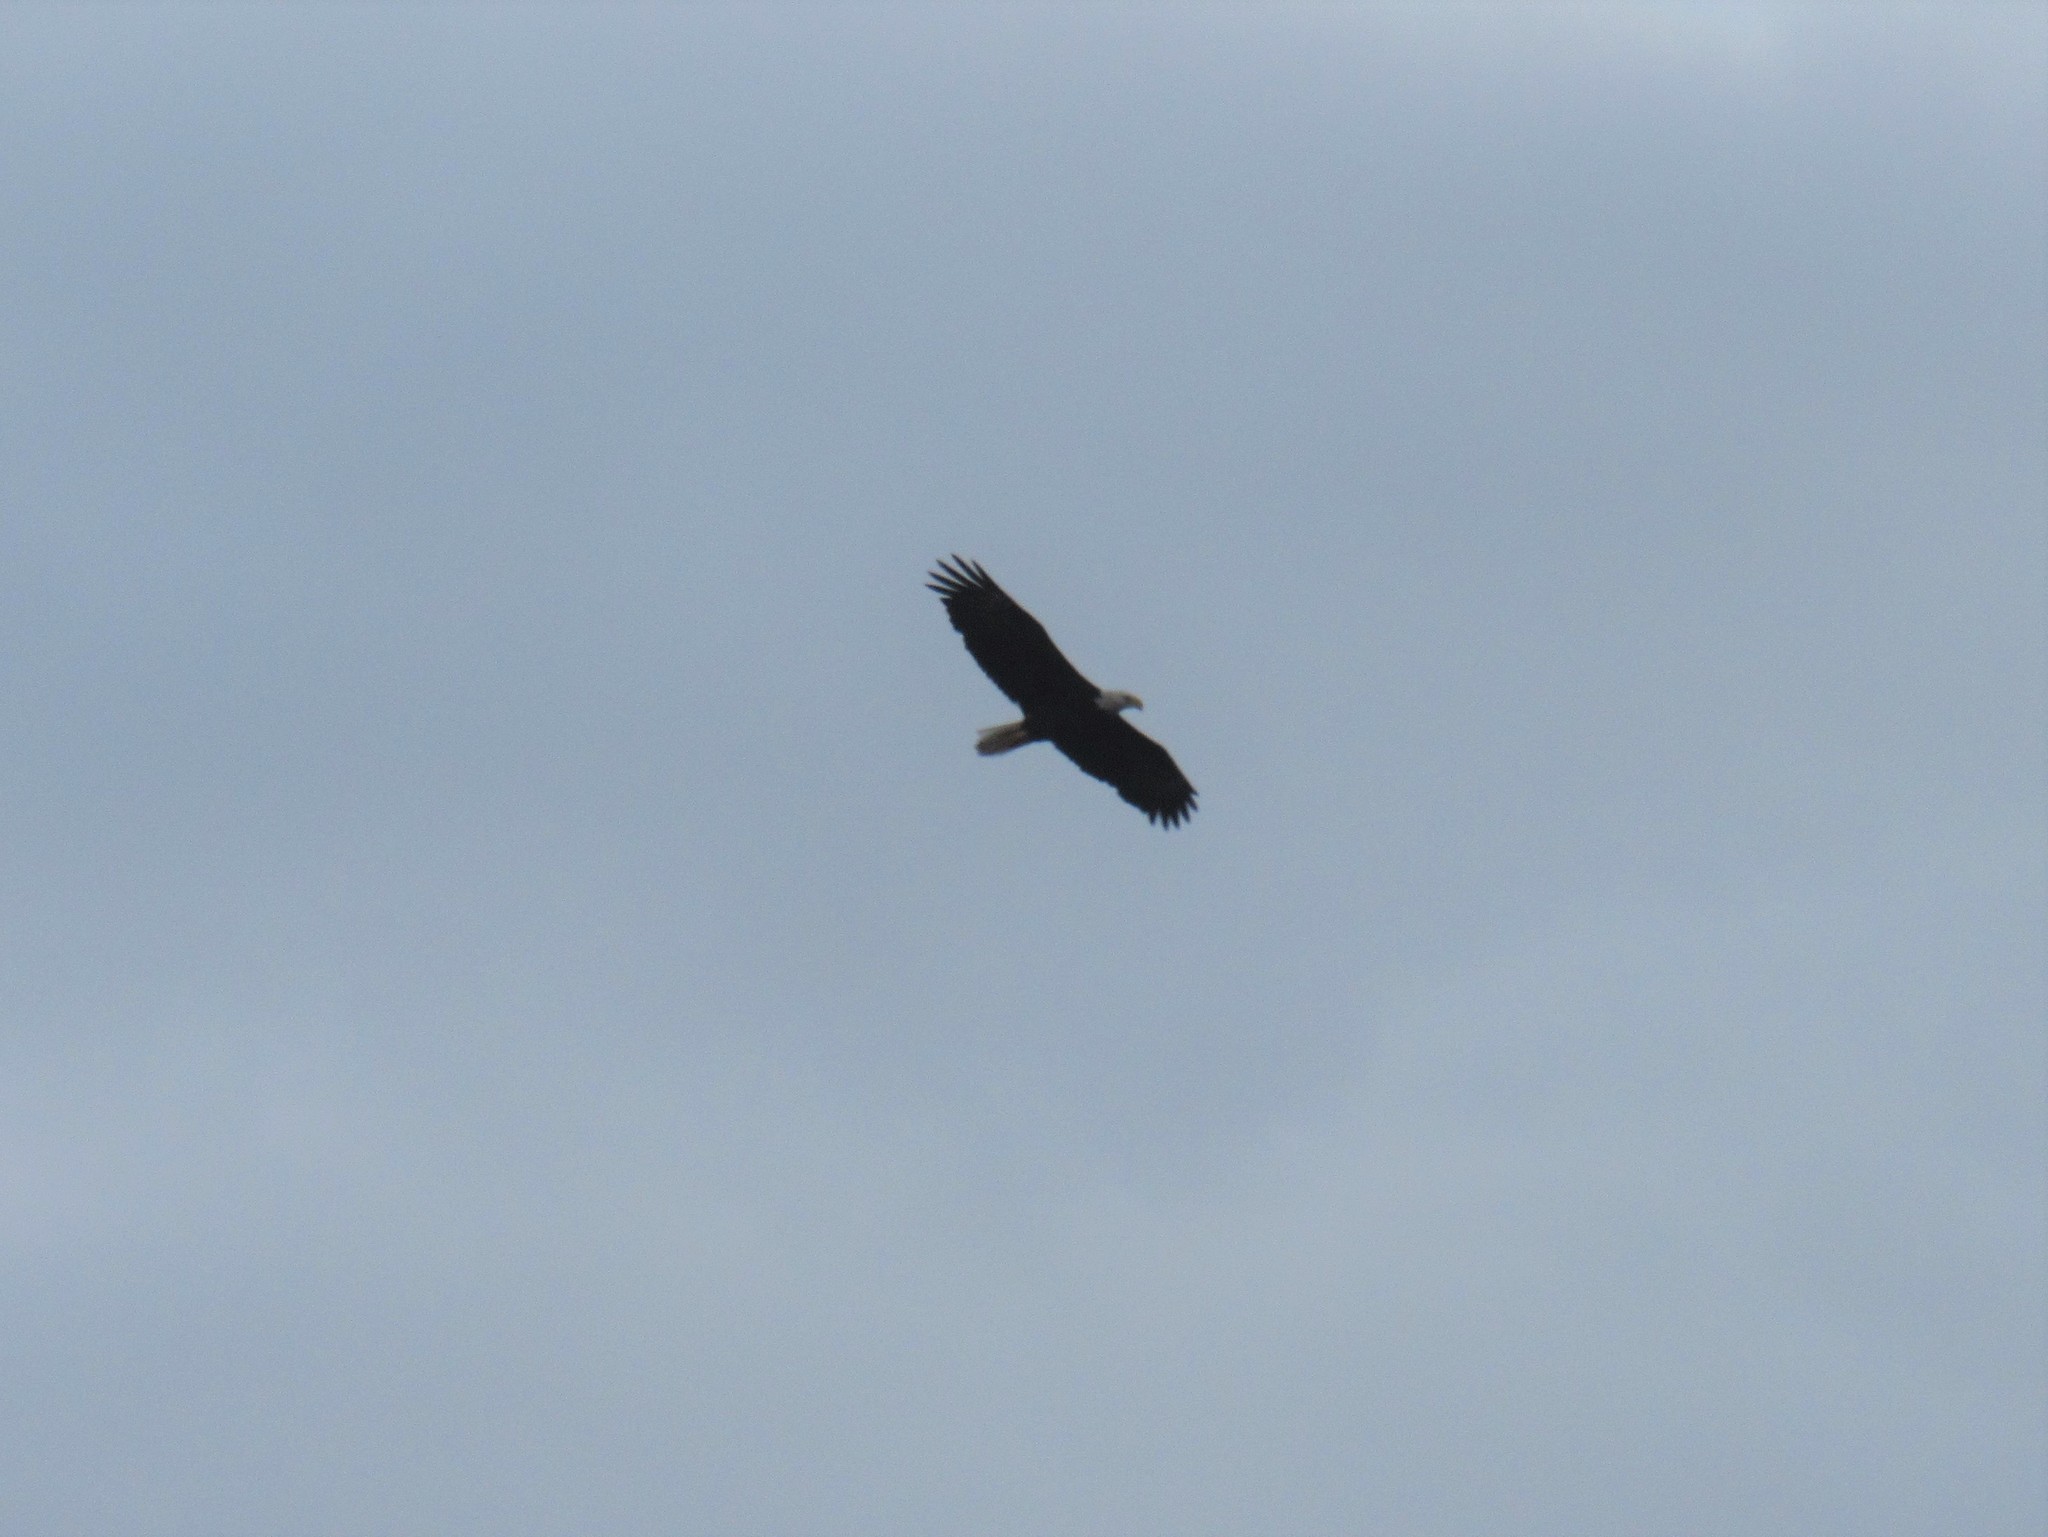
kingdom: Animalia
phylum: Chordata
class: Aves
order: Accipitriformes
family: Accipitridae
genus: Haliaeetus
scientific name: Haliaeetus leucocephalus
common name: Bald eagle
